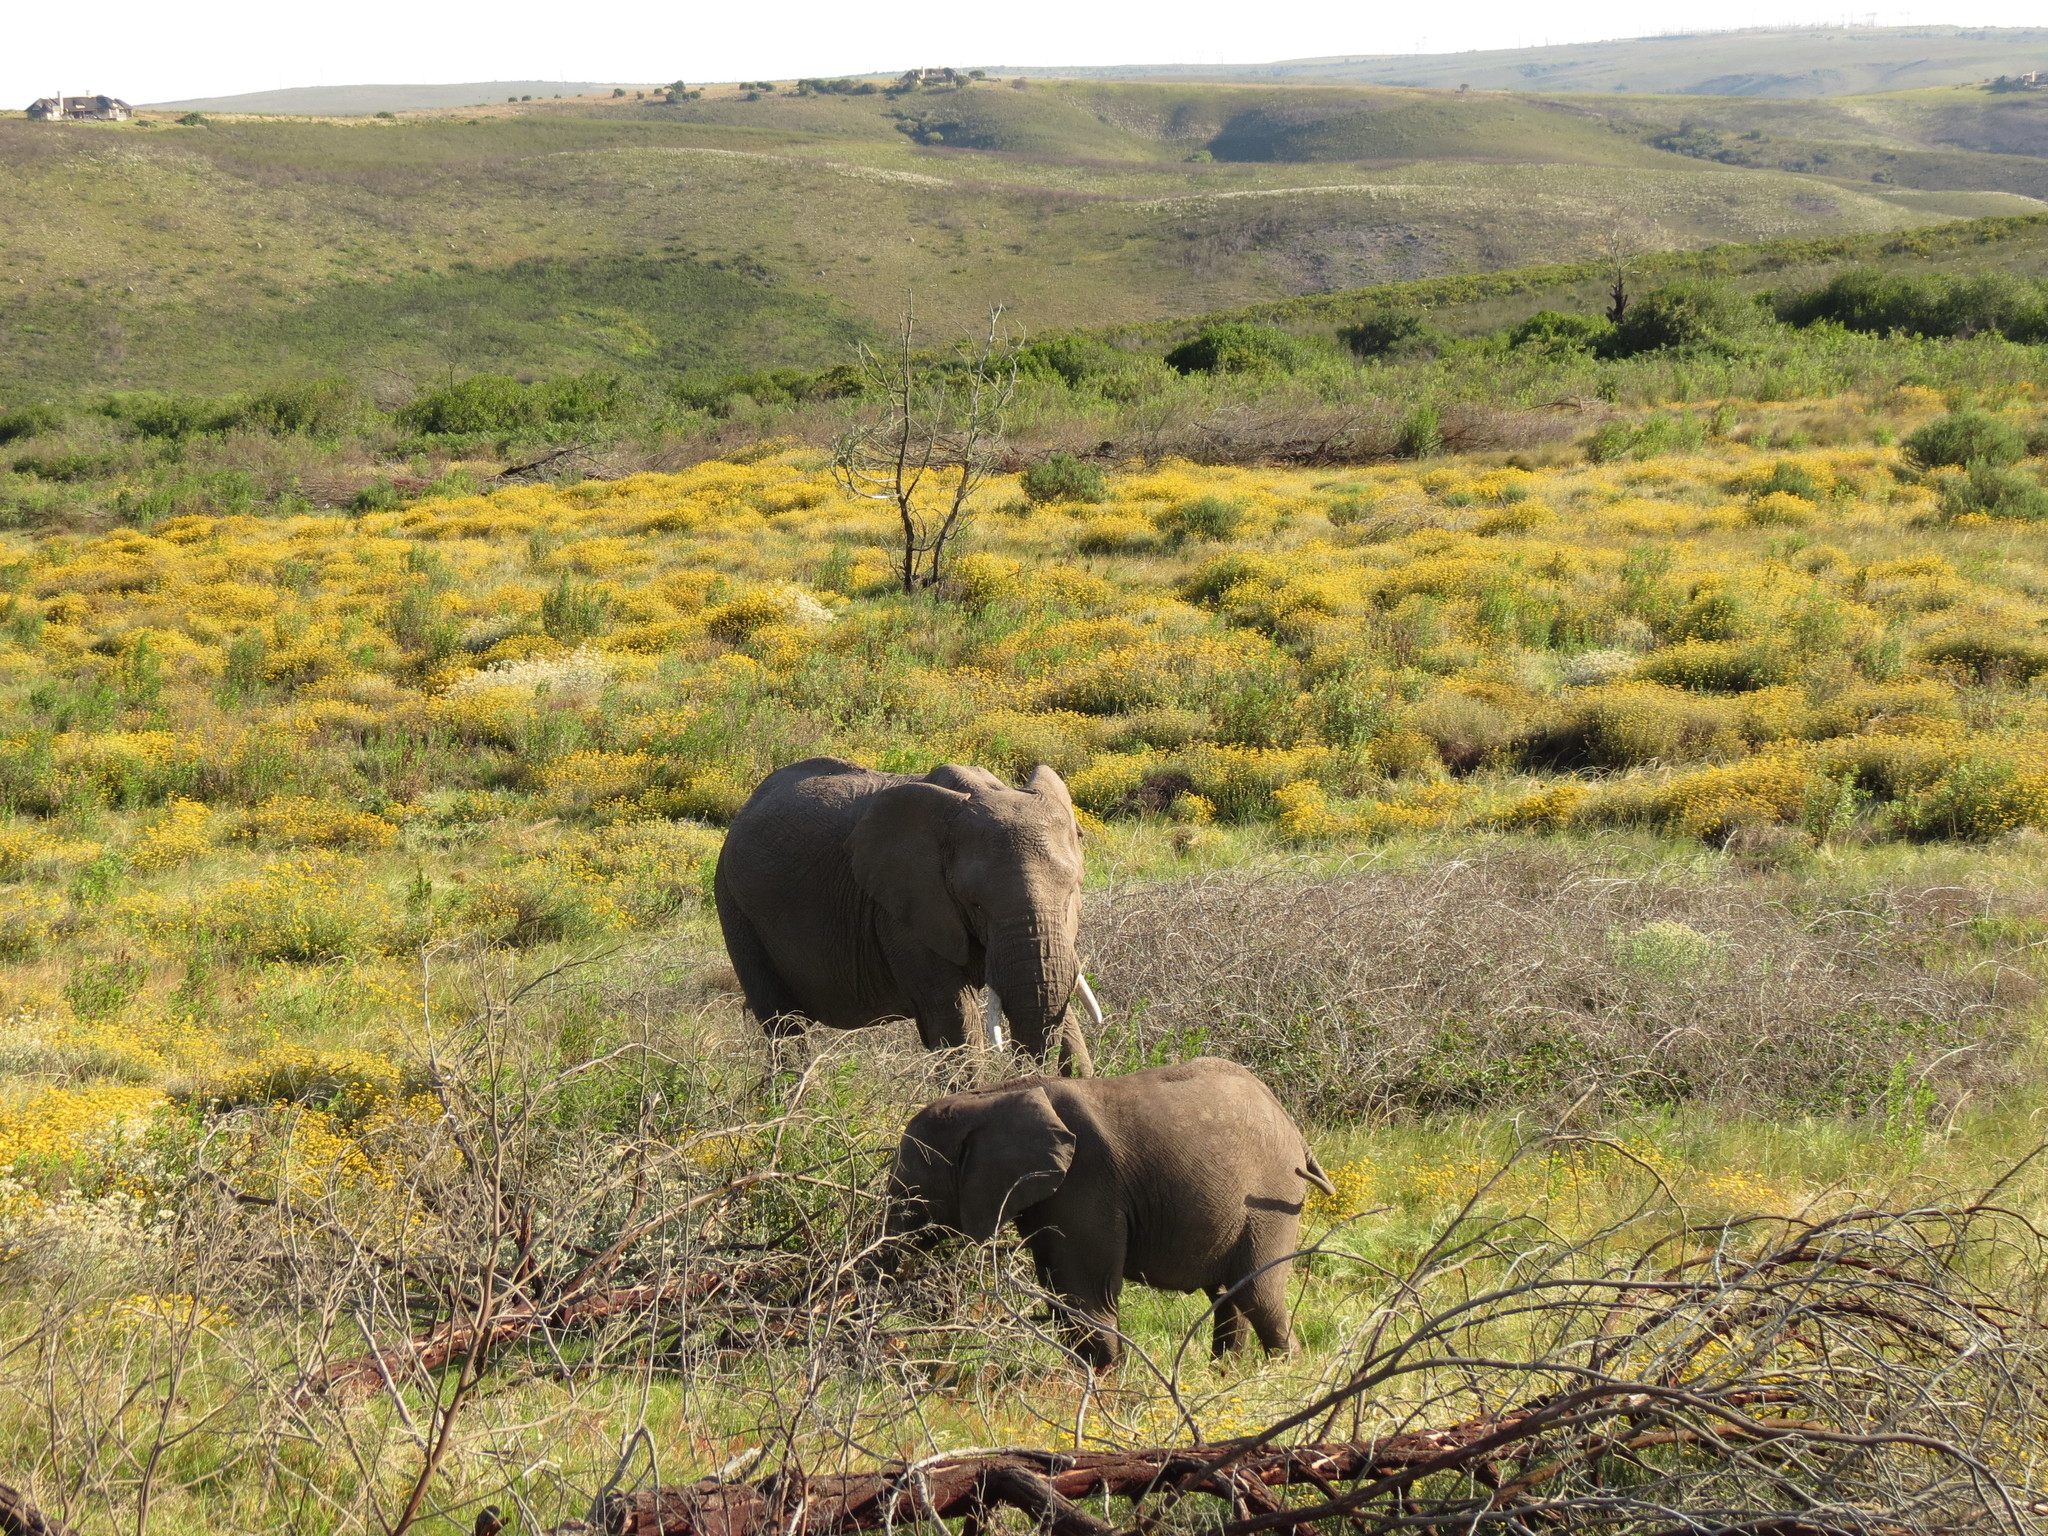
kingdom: Animalia
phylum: Chordata
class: Mammalia
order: Proboscidea
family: Elephantidae
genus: Loxodonta
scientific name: Loxodonta africana
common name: African elephant
